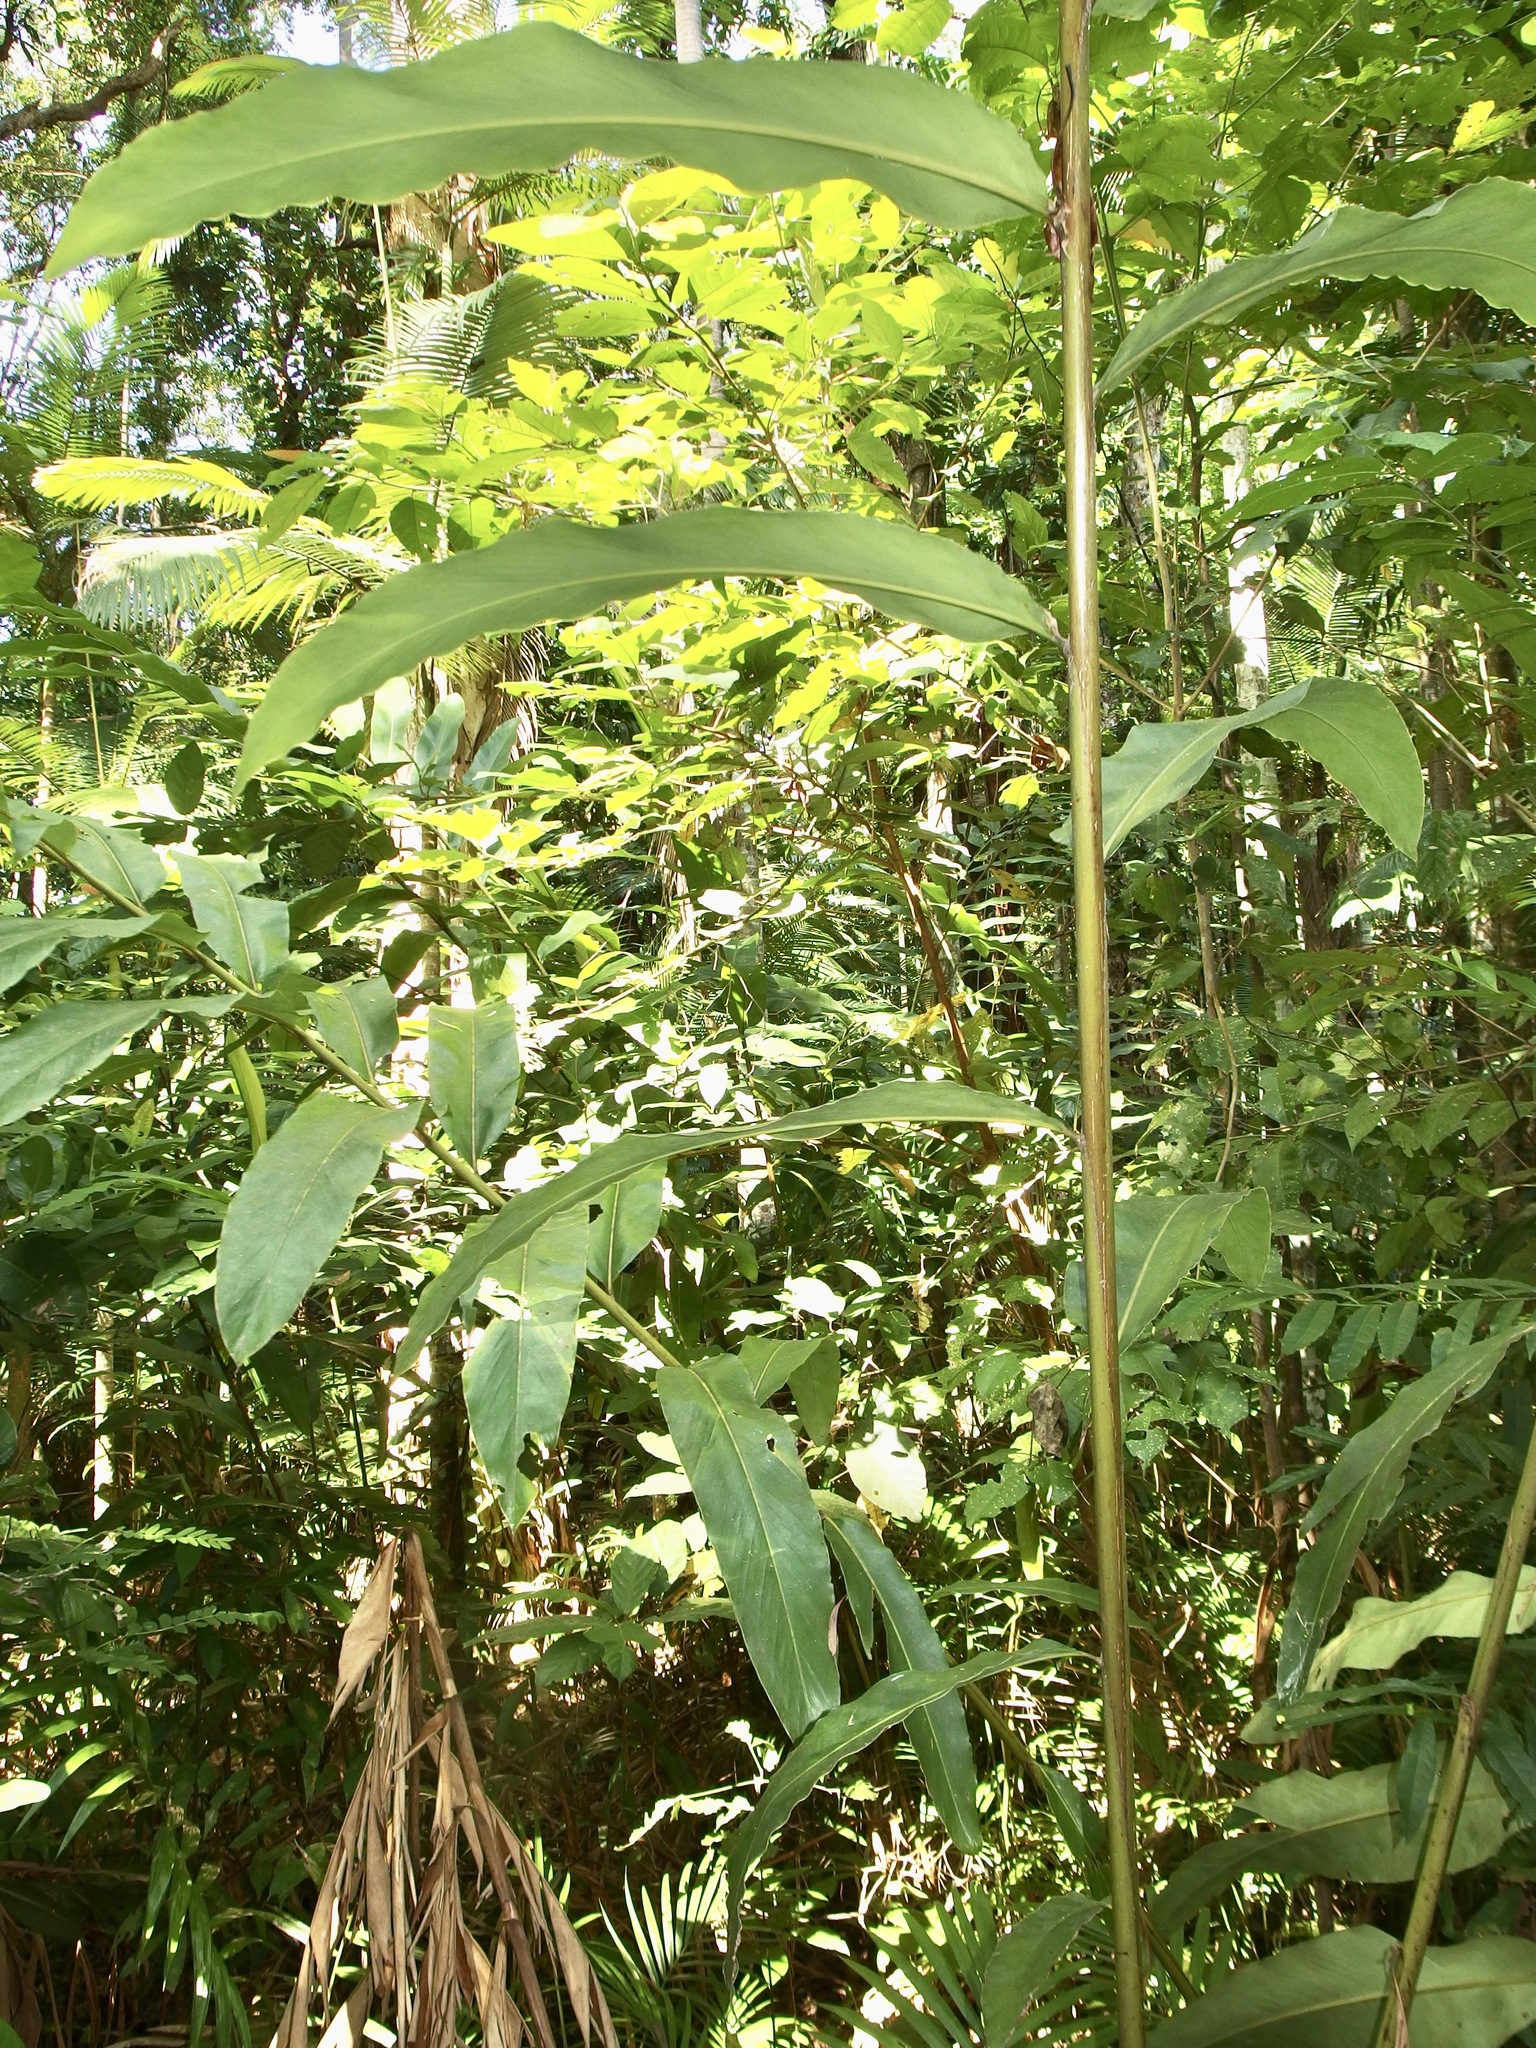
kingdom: Plantae
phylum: Tracheophyta
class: Liliopsida
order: Zingiberales
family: Zingiberaceae
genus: Hornstedtia
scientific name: Hornstedtia scottiana
